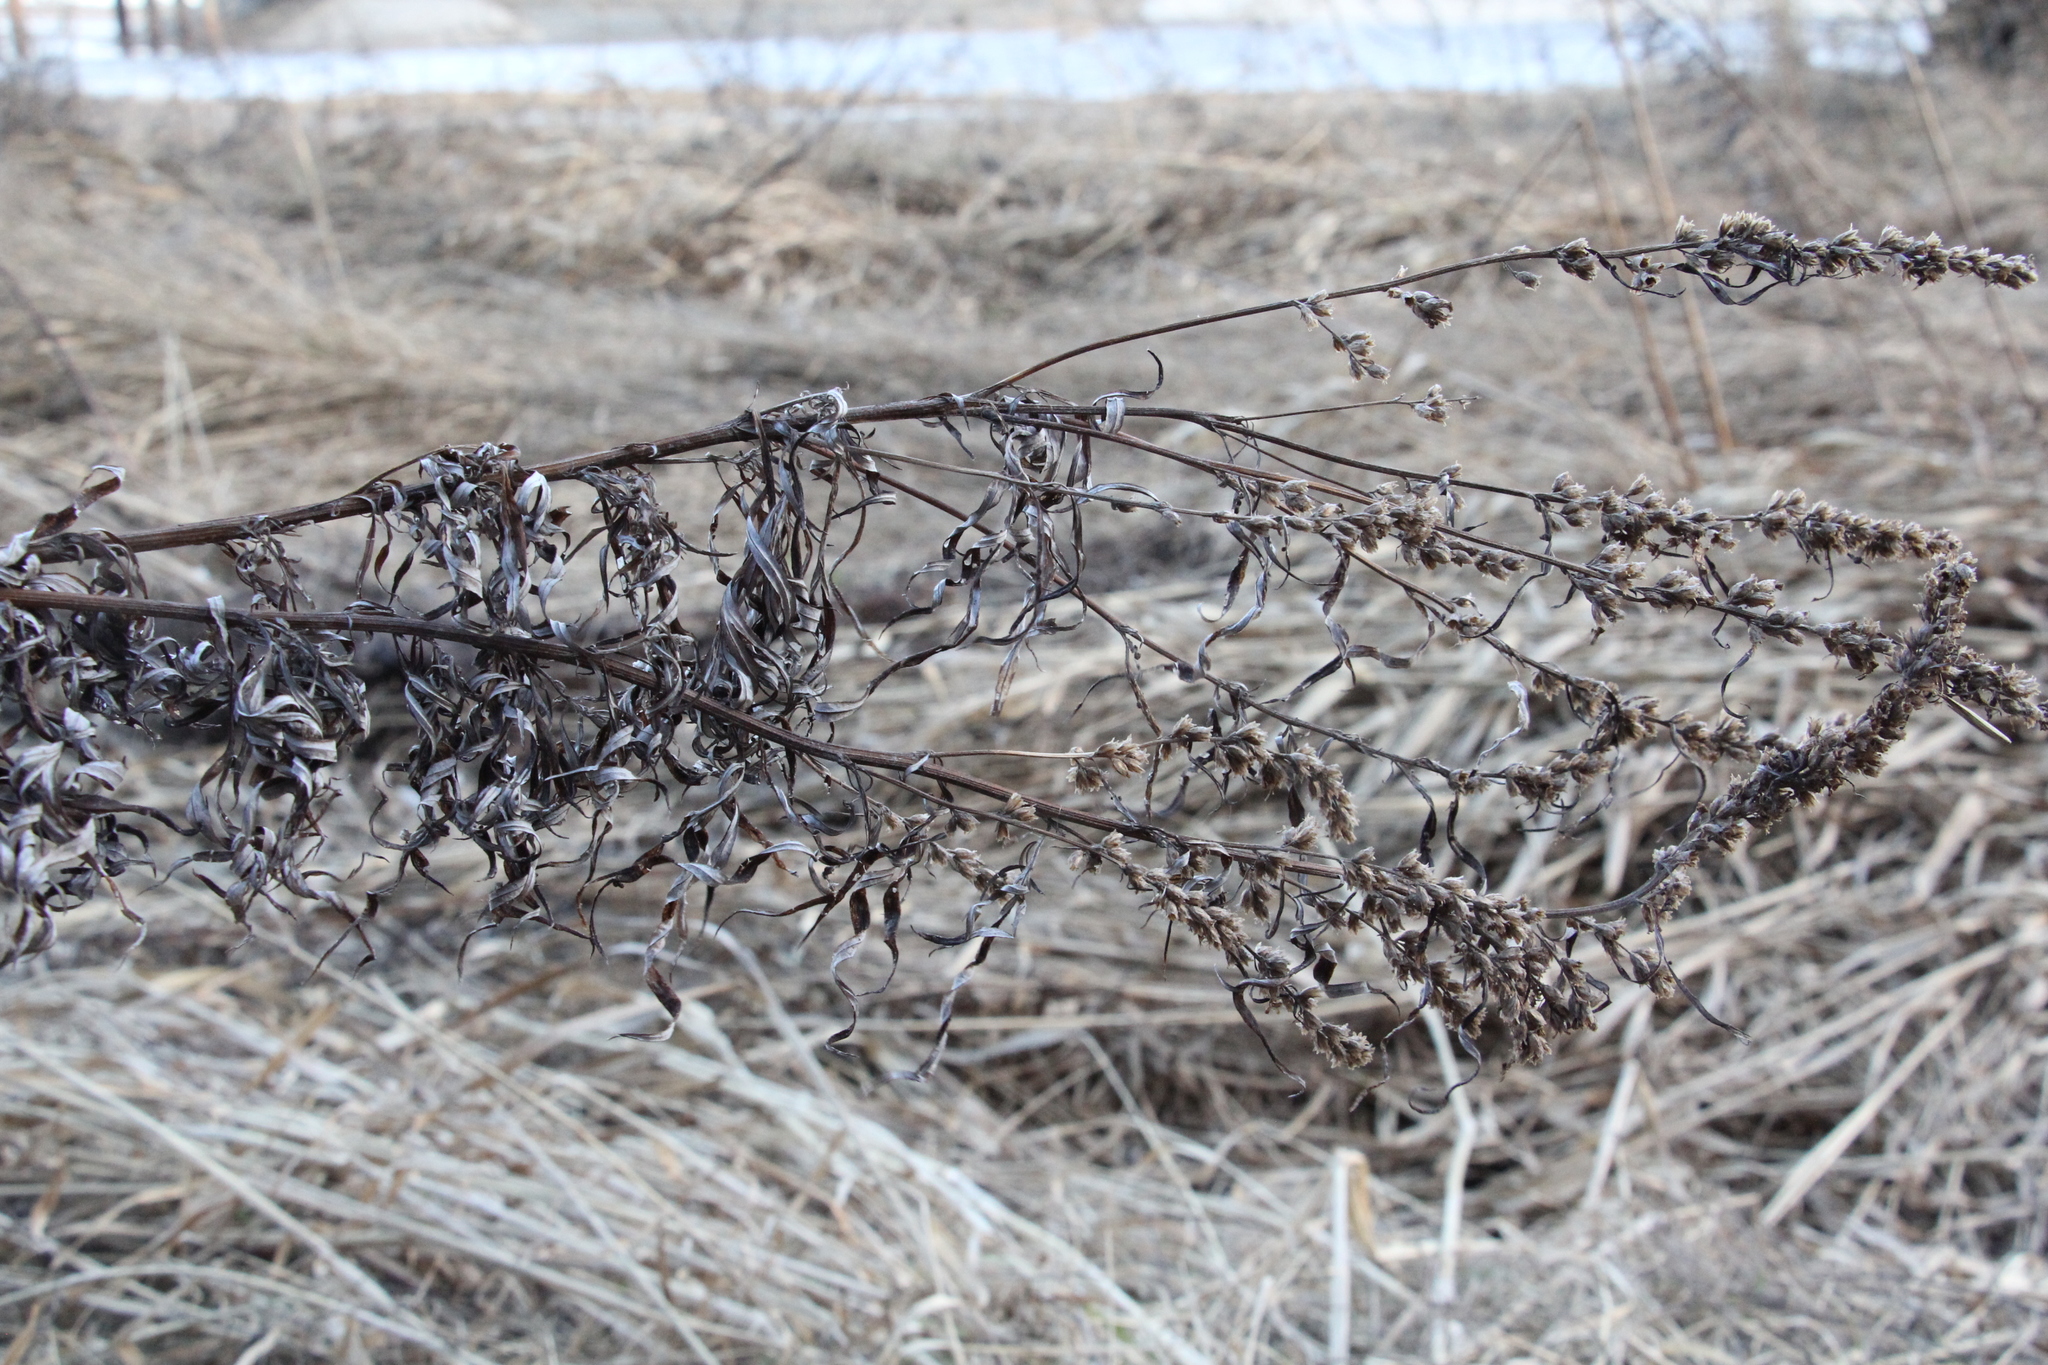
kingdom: Plantae
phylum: Tracheophyta
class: Magnoliopsida
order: Asterales
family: Asteraceae
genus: Artemisia
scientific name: Artemisia vulgaris
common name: Mugwort
